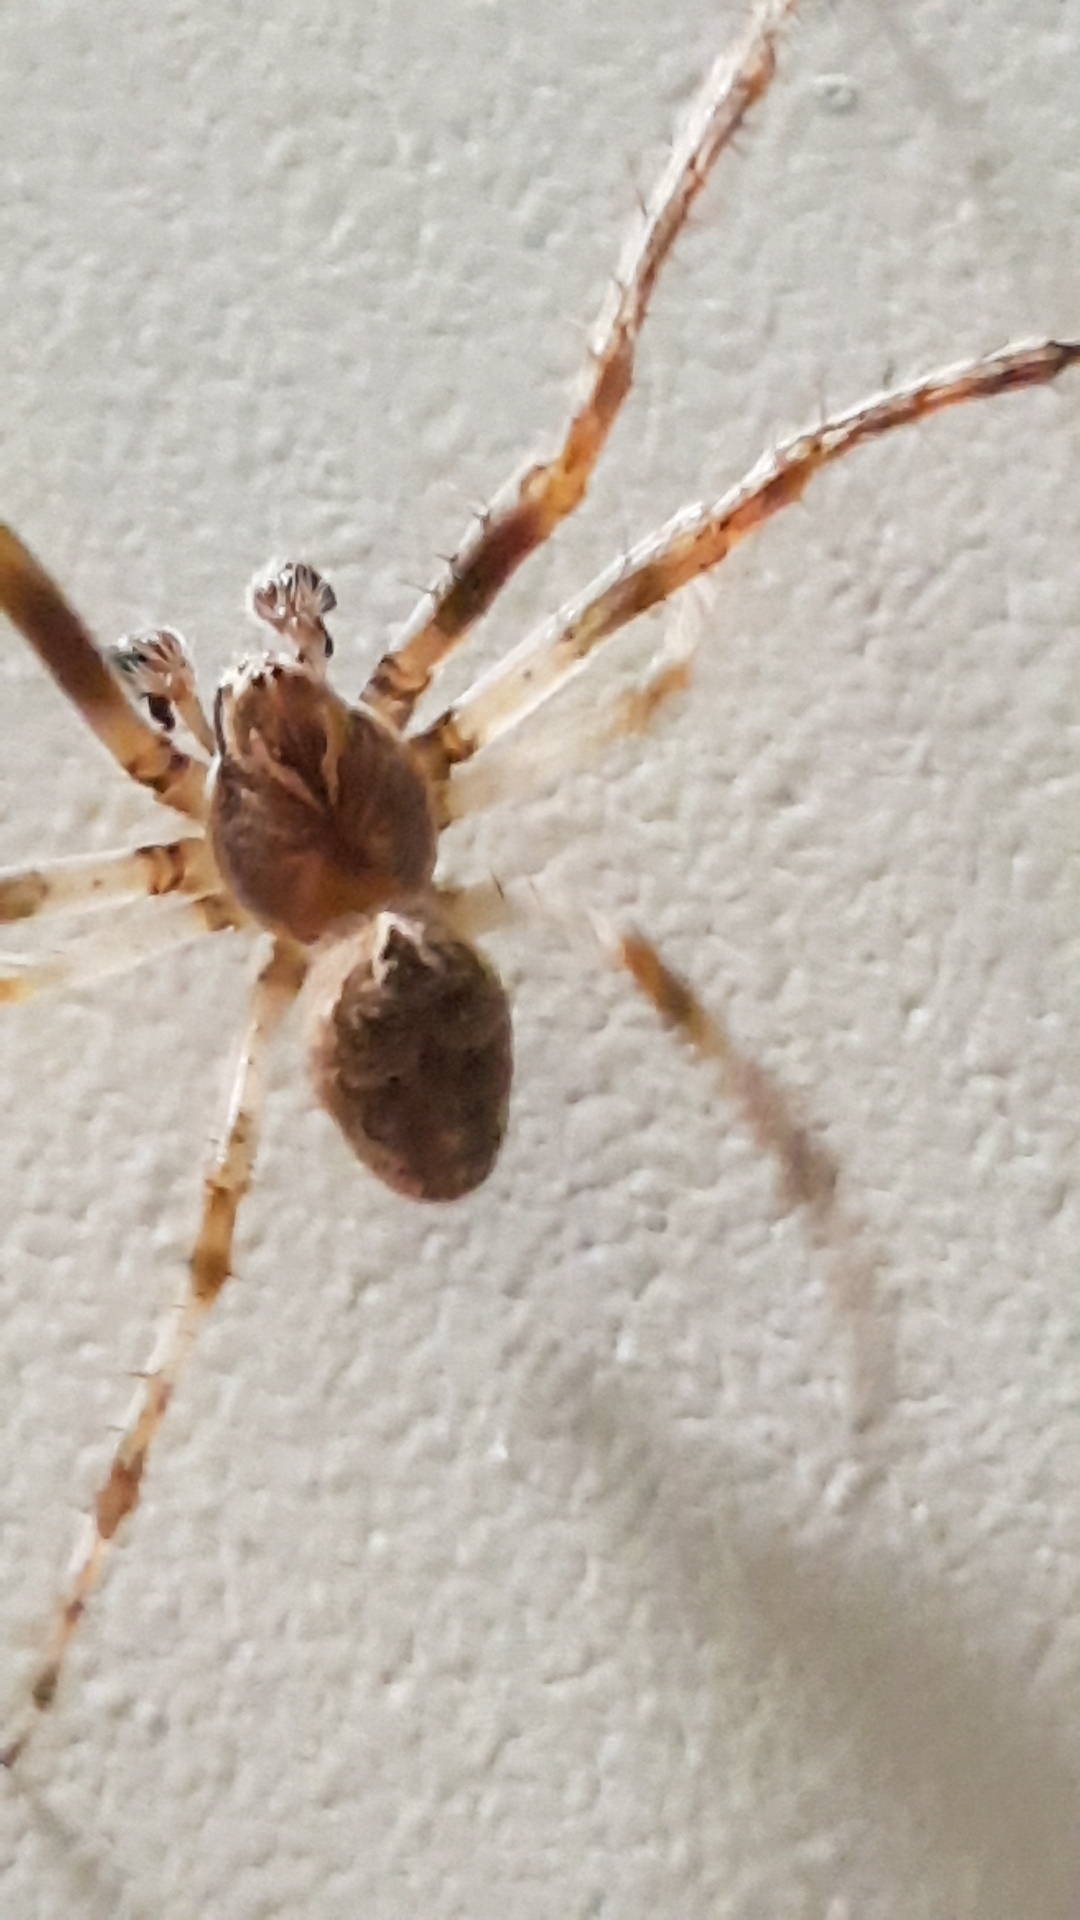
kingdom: Animalia
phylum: Arthropoda
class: Arachnida
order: Araneae
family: Araneidae
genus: Larinioides
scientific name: Larinioides sclopetarius
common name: Bridge orbweaver
